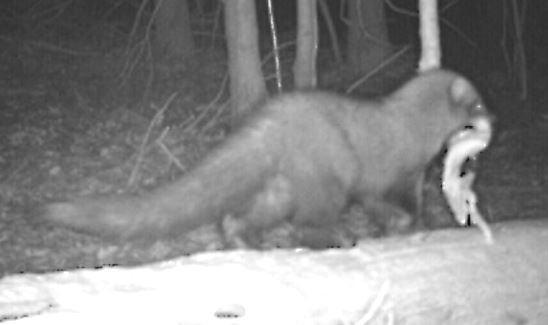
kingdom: Animalia
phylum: Chordata
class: Mammalia
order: Carnivora
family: Mustelidae
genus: Pekania
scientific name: Pekania pennanti
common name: Fisher
